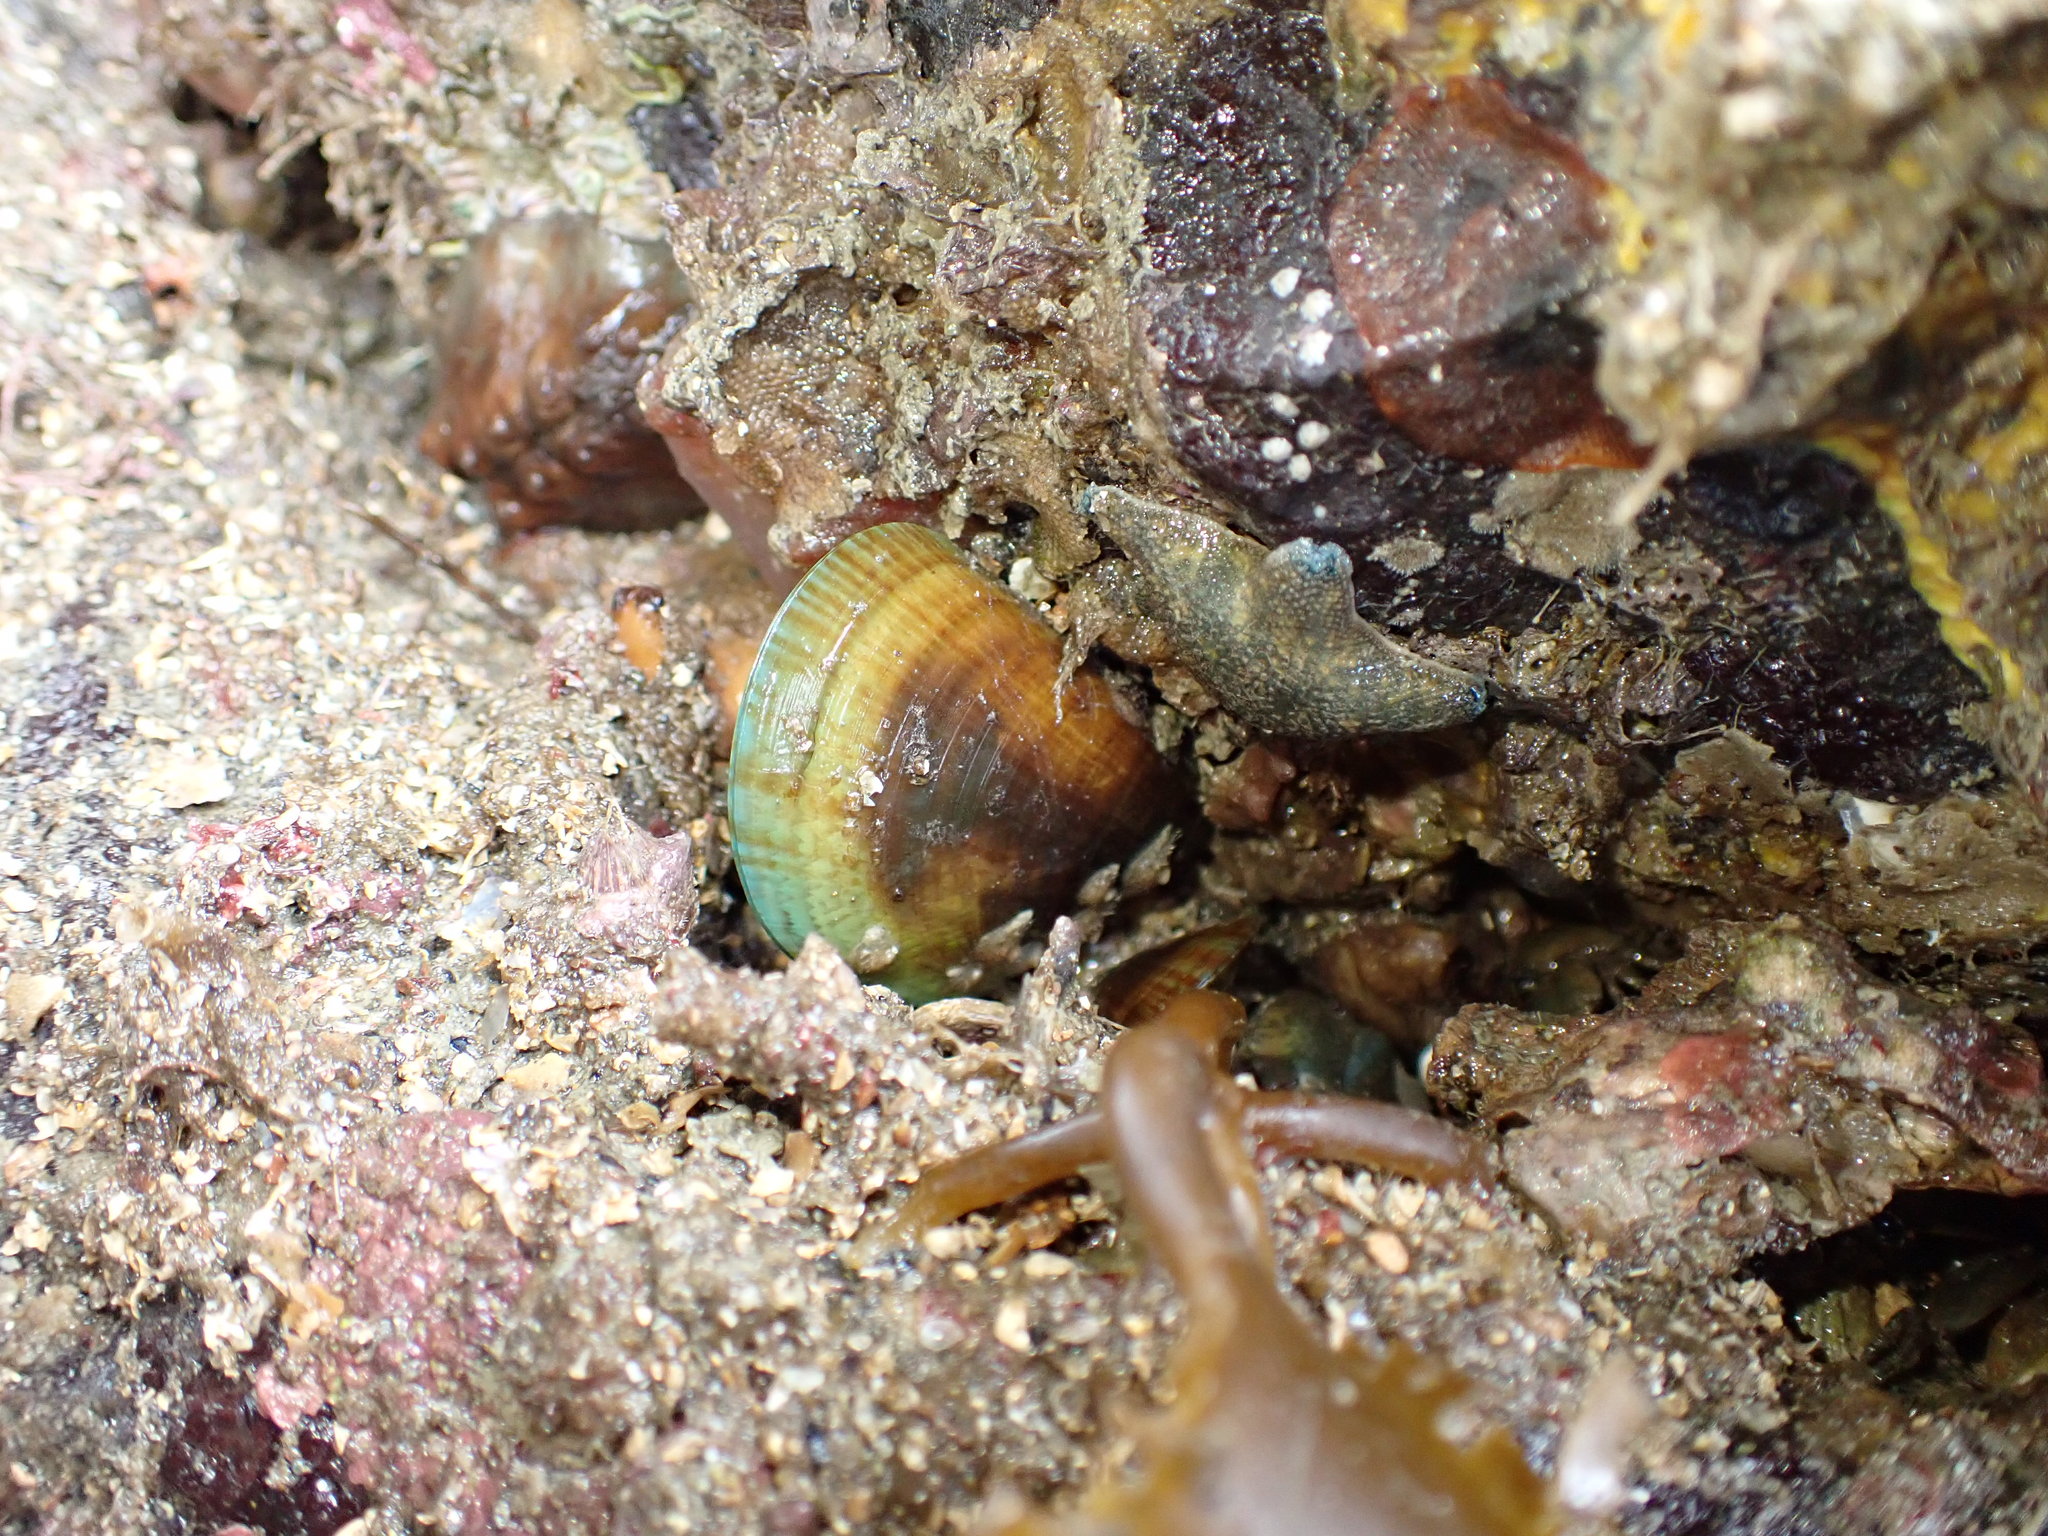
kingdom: Animalia
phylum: Mollusca
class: Bivalvia
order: Mytilida
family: Mytilidae
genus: Perna
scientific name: Perna canaliculus
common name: New zealand greenshelltm
